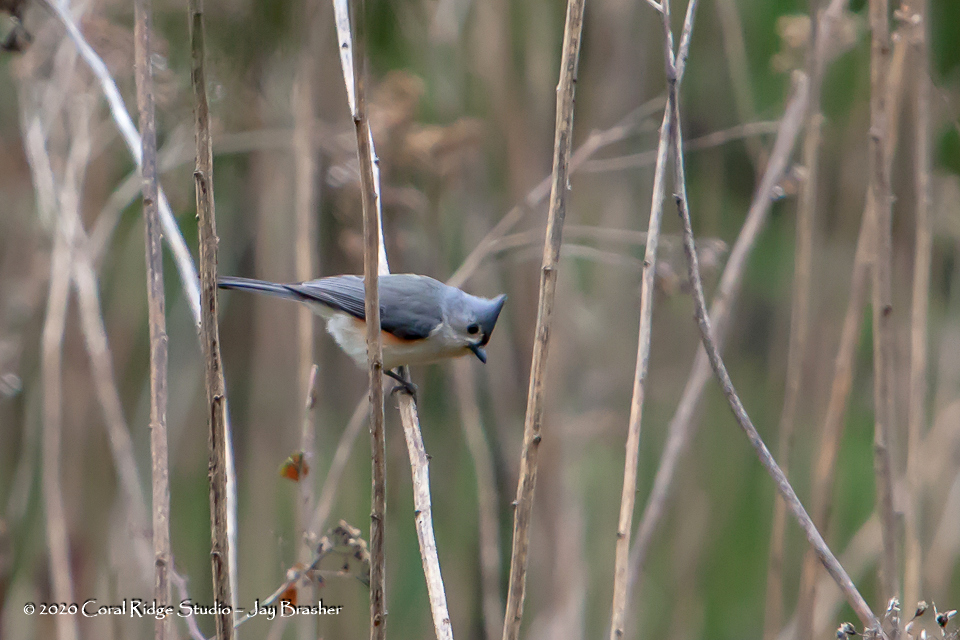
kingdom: Animalia
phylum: Chordata
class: Aves
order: Passeriformes
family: Paridae
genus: Baeolophus
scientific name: Baeolophus bicolor
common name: Tufted titmouse
